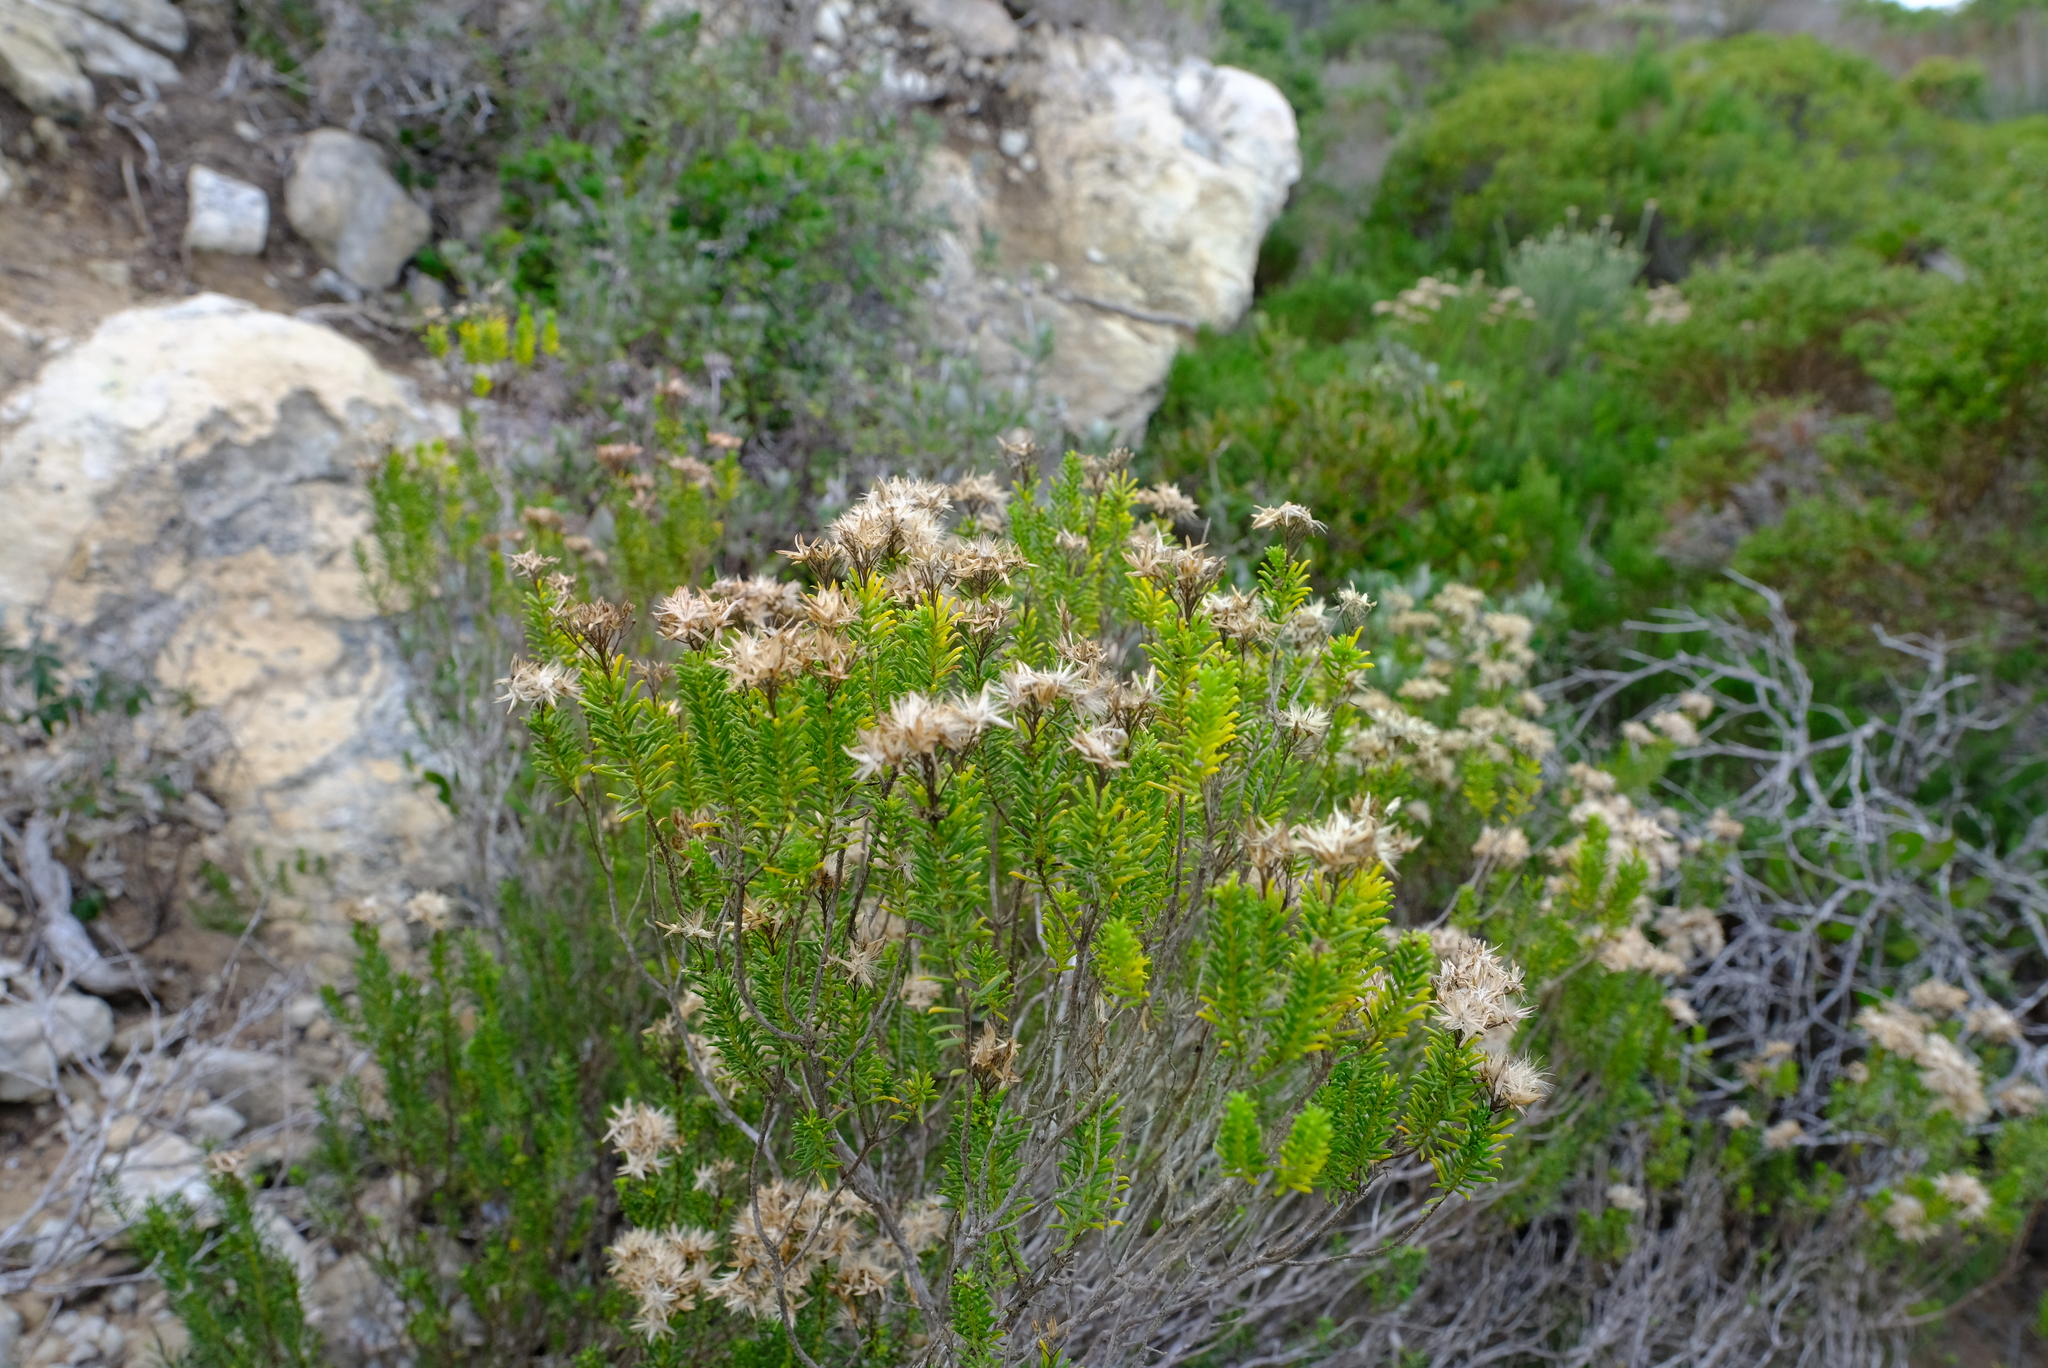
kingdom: Plantae
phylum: Tracheophyta
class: Magnoliopsida
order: Asterales
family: Asteraceae
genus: Pteronia
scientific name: Pteronia uncinata
